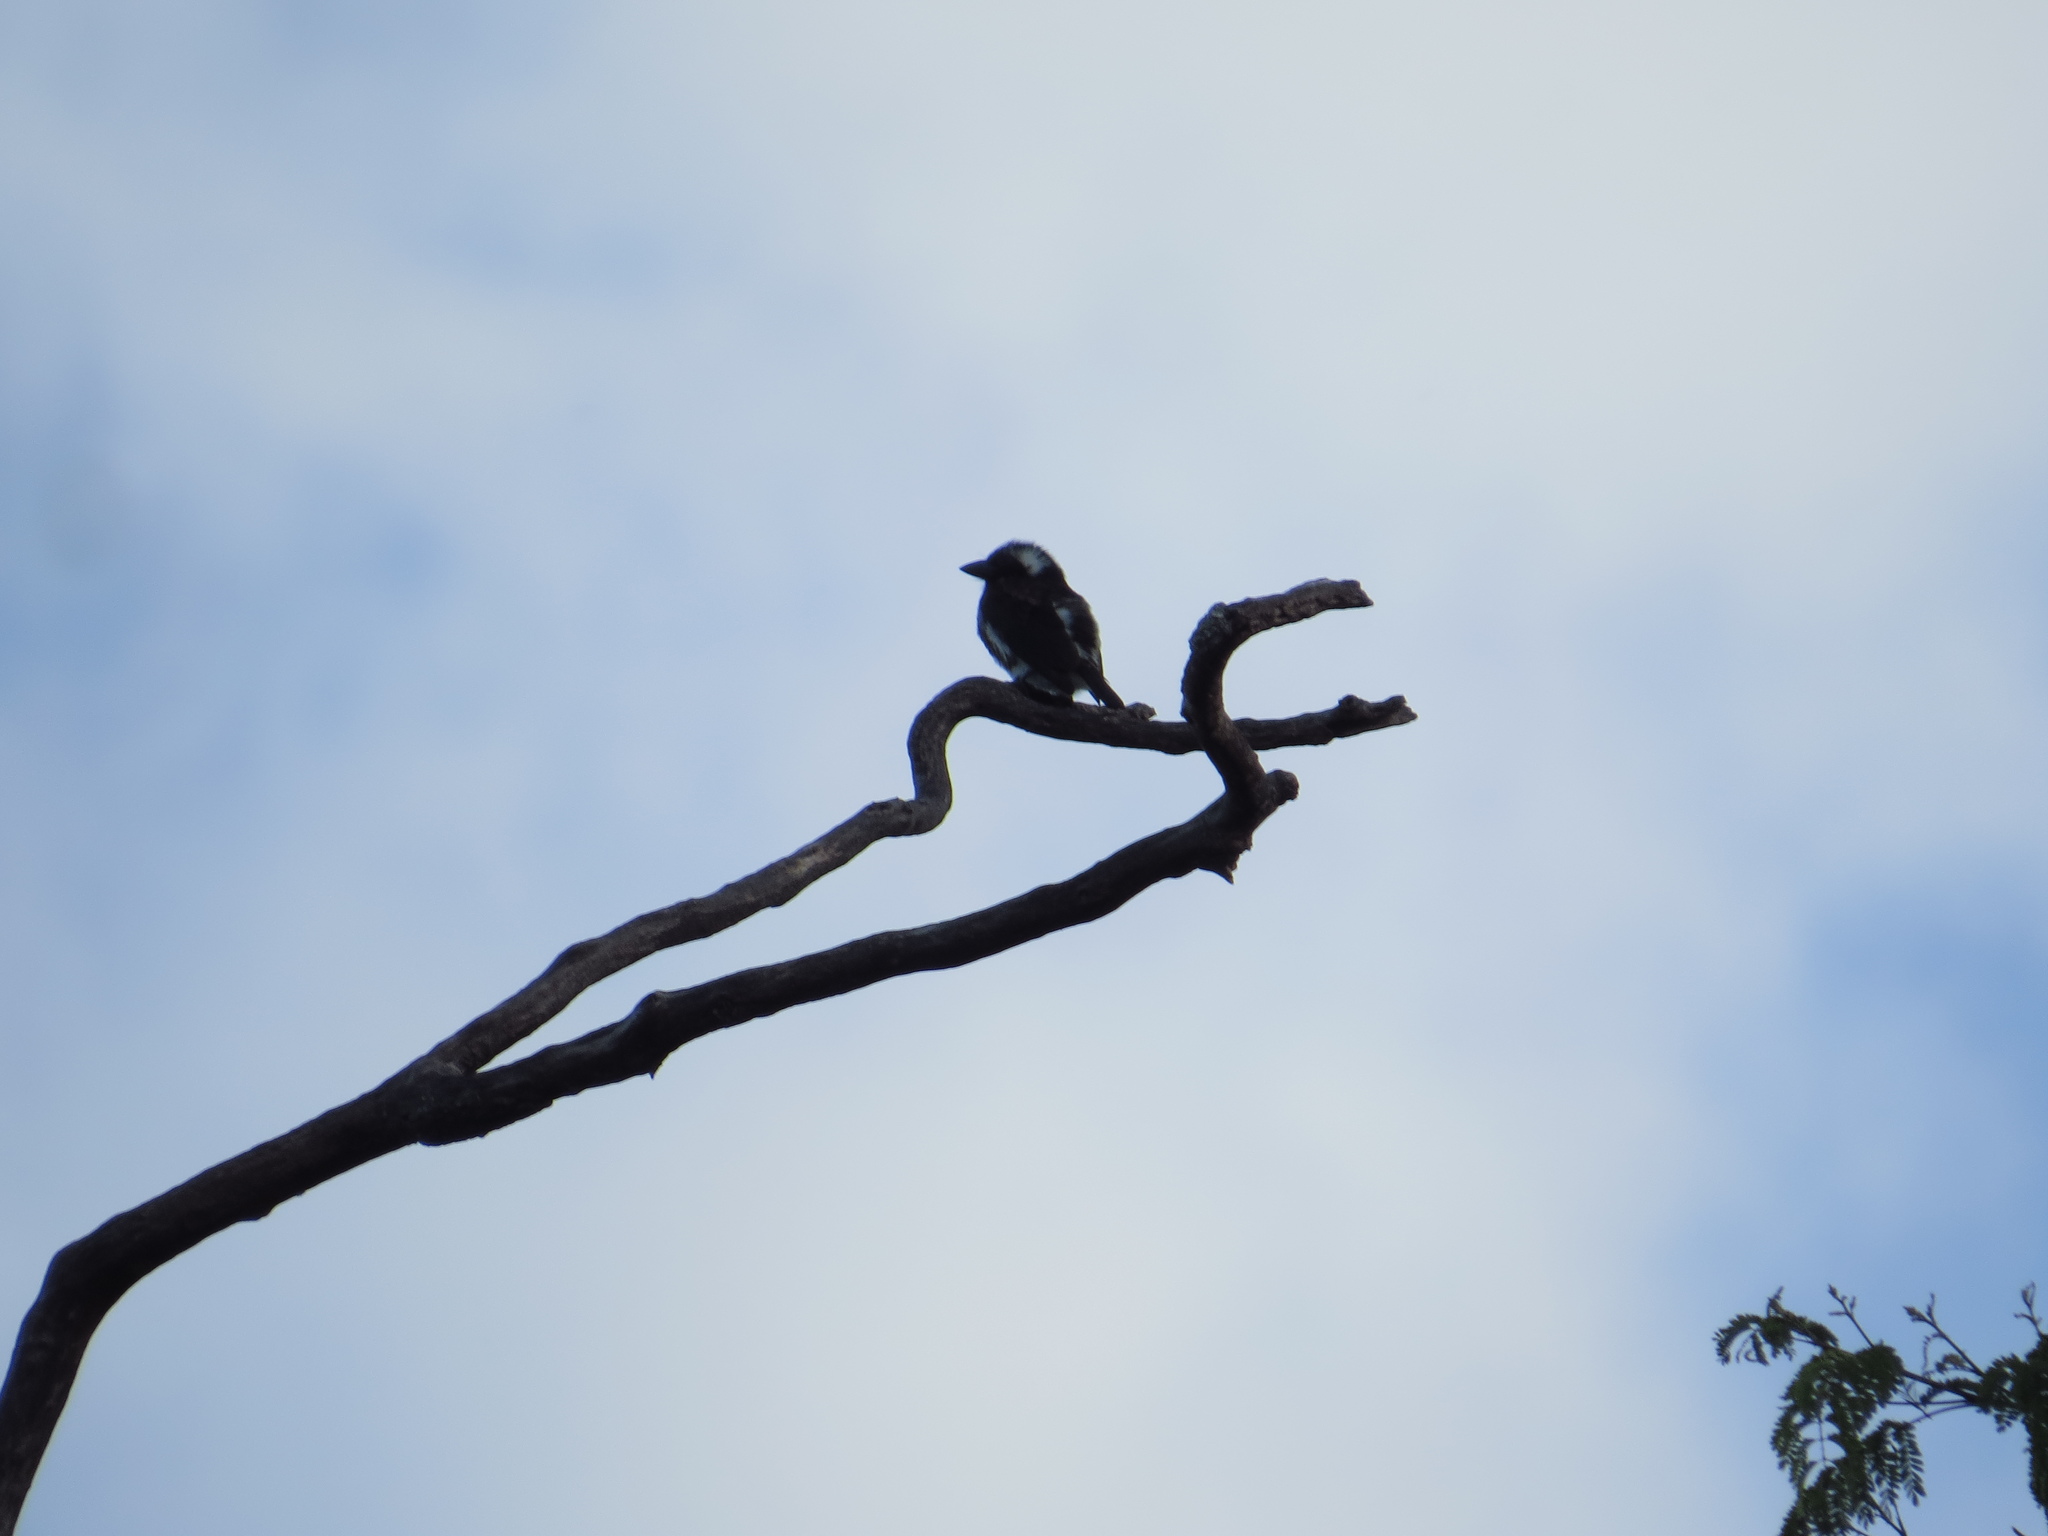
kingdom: Animalia
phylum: Chordata
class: Aves
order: Piciformes
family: Lybiidae
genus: Stactolaema
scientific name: Stactolaema leucotis
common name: White-eared barbet
